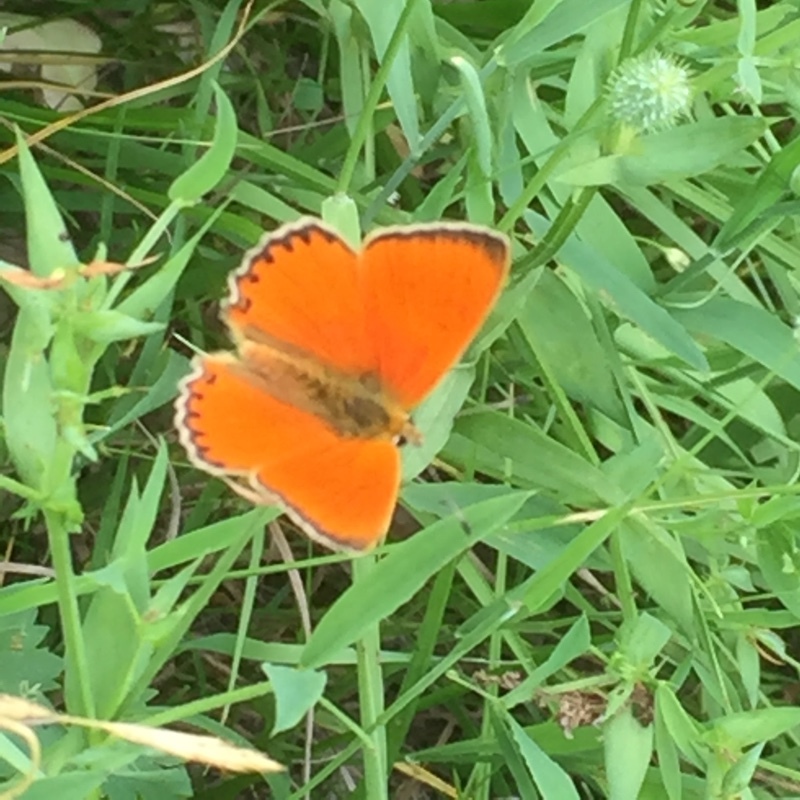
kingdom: Animalia
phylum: Arthropoda
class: Insecta
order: Lepidoptera
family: Lycaenidae
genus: Lycaena
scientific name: Lycaena virgaureae
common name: Scarce copper
